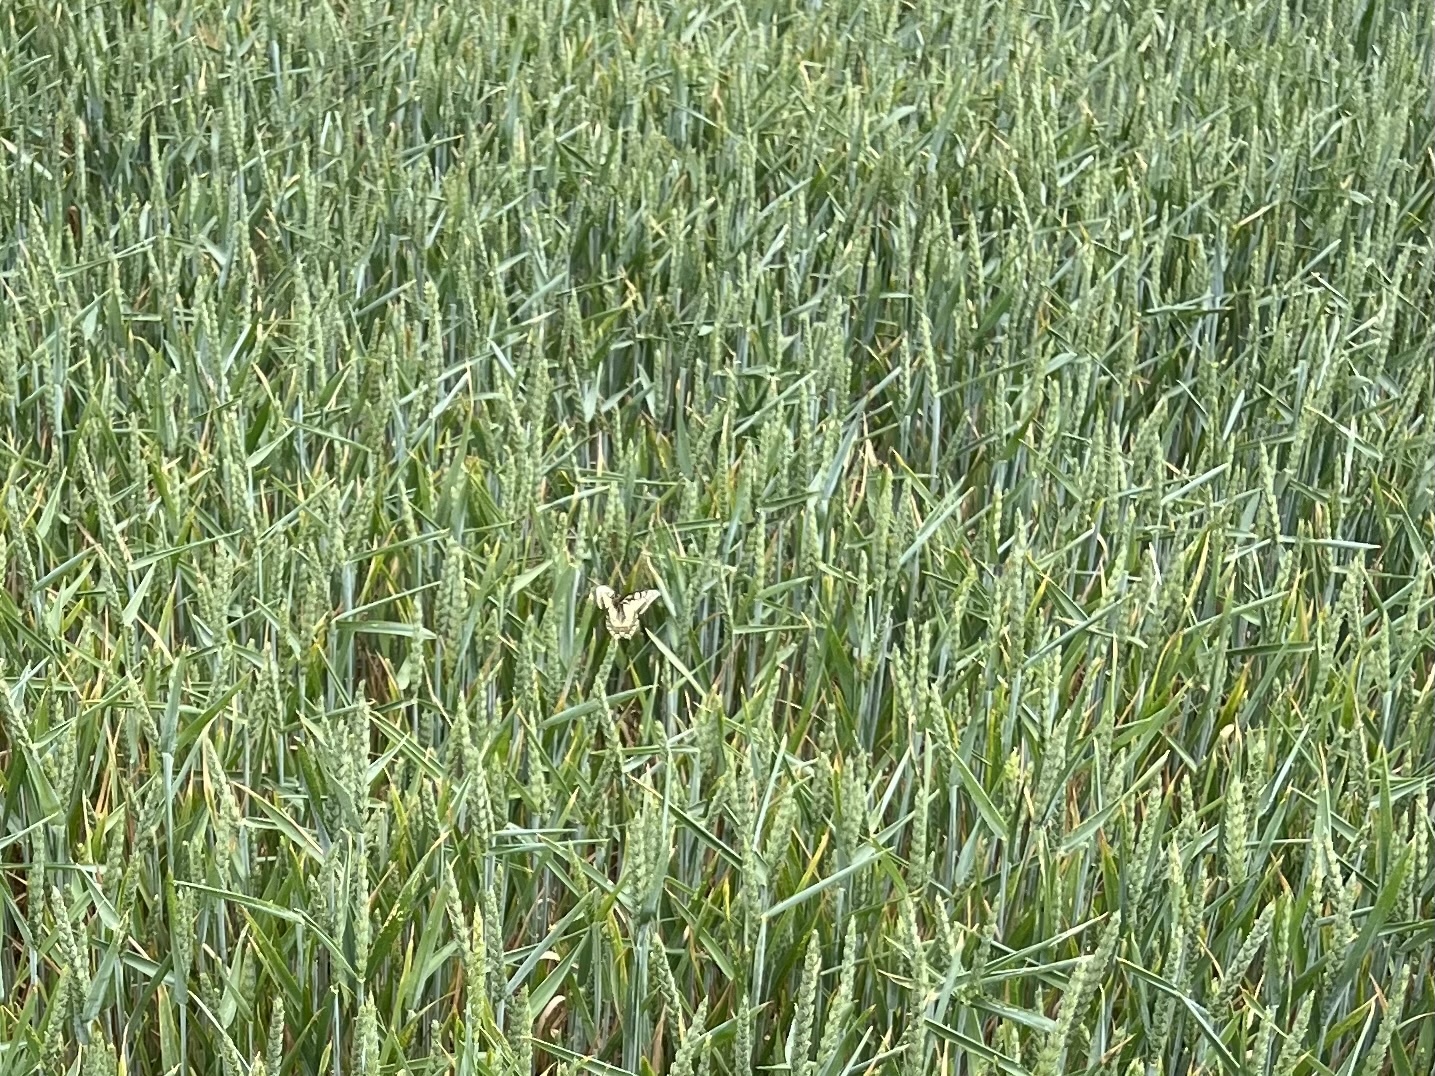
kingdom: Animalia
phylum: Arthropoda
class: Insecta
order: Lepidoptera
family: Papilionidae
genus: Papilio
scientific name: Papilio machaon
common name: Swallowtail
